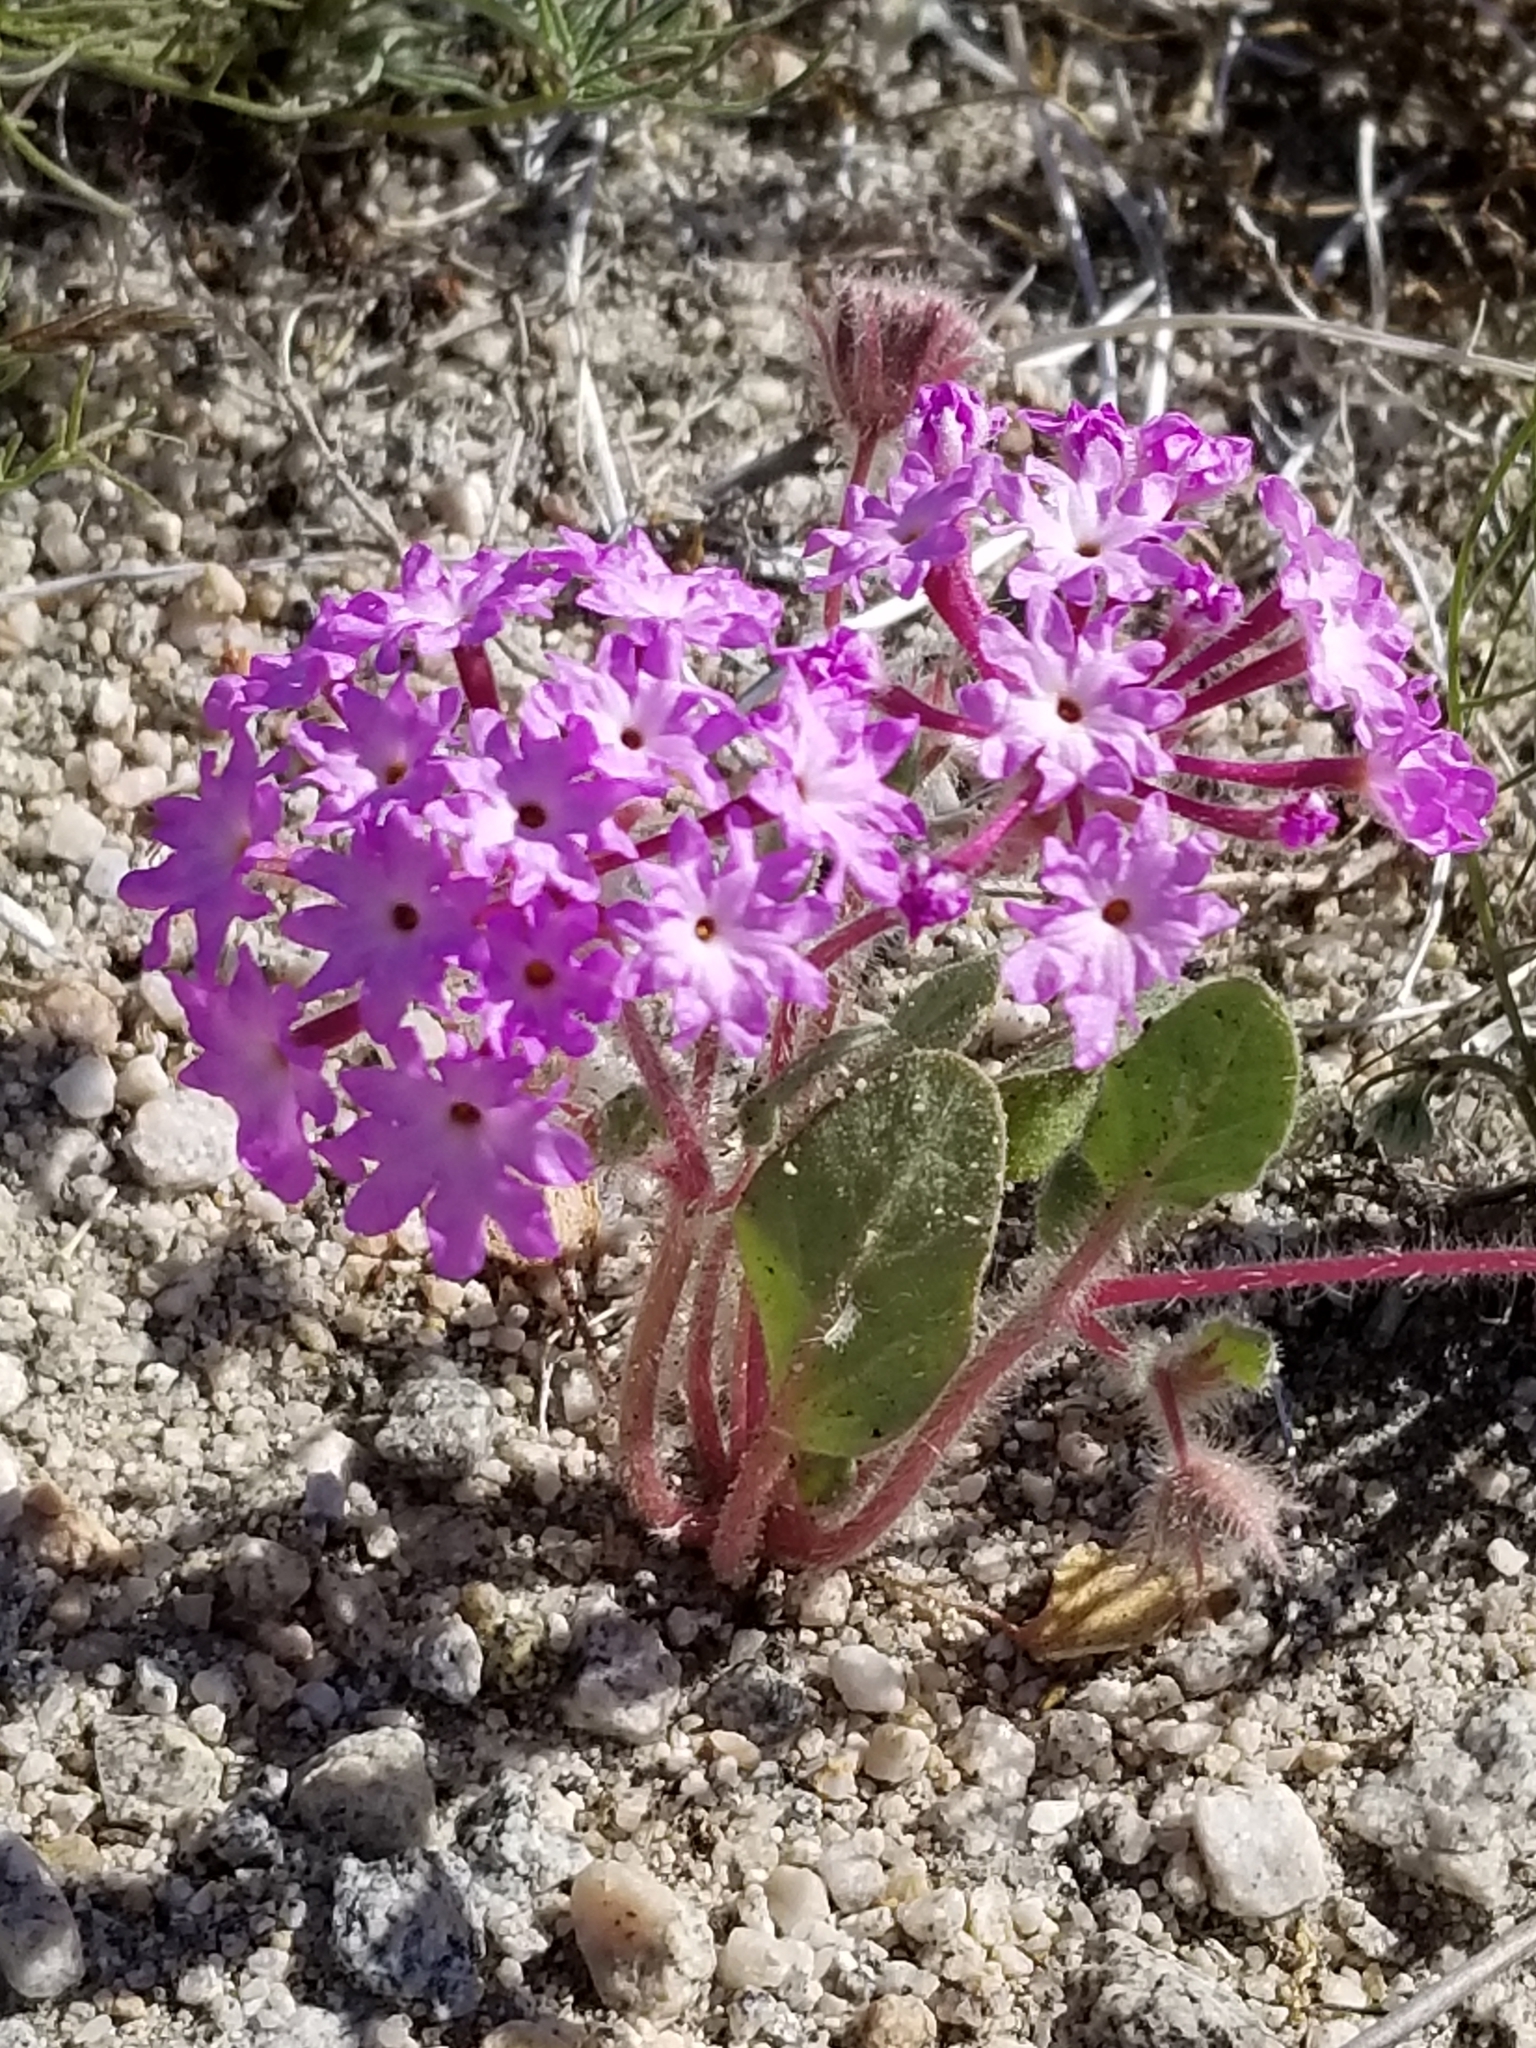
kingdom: Plantae
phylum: Tracheophyta
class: Magnoliopsida
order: Caryophyllales
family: Nyctaginaceae
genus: Abronia
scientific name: Abronia villosa
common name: Desert sand-verbena
